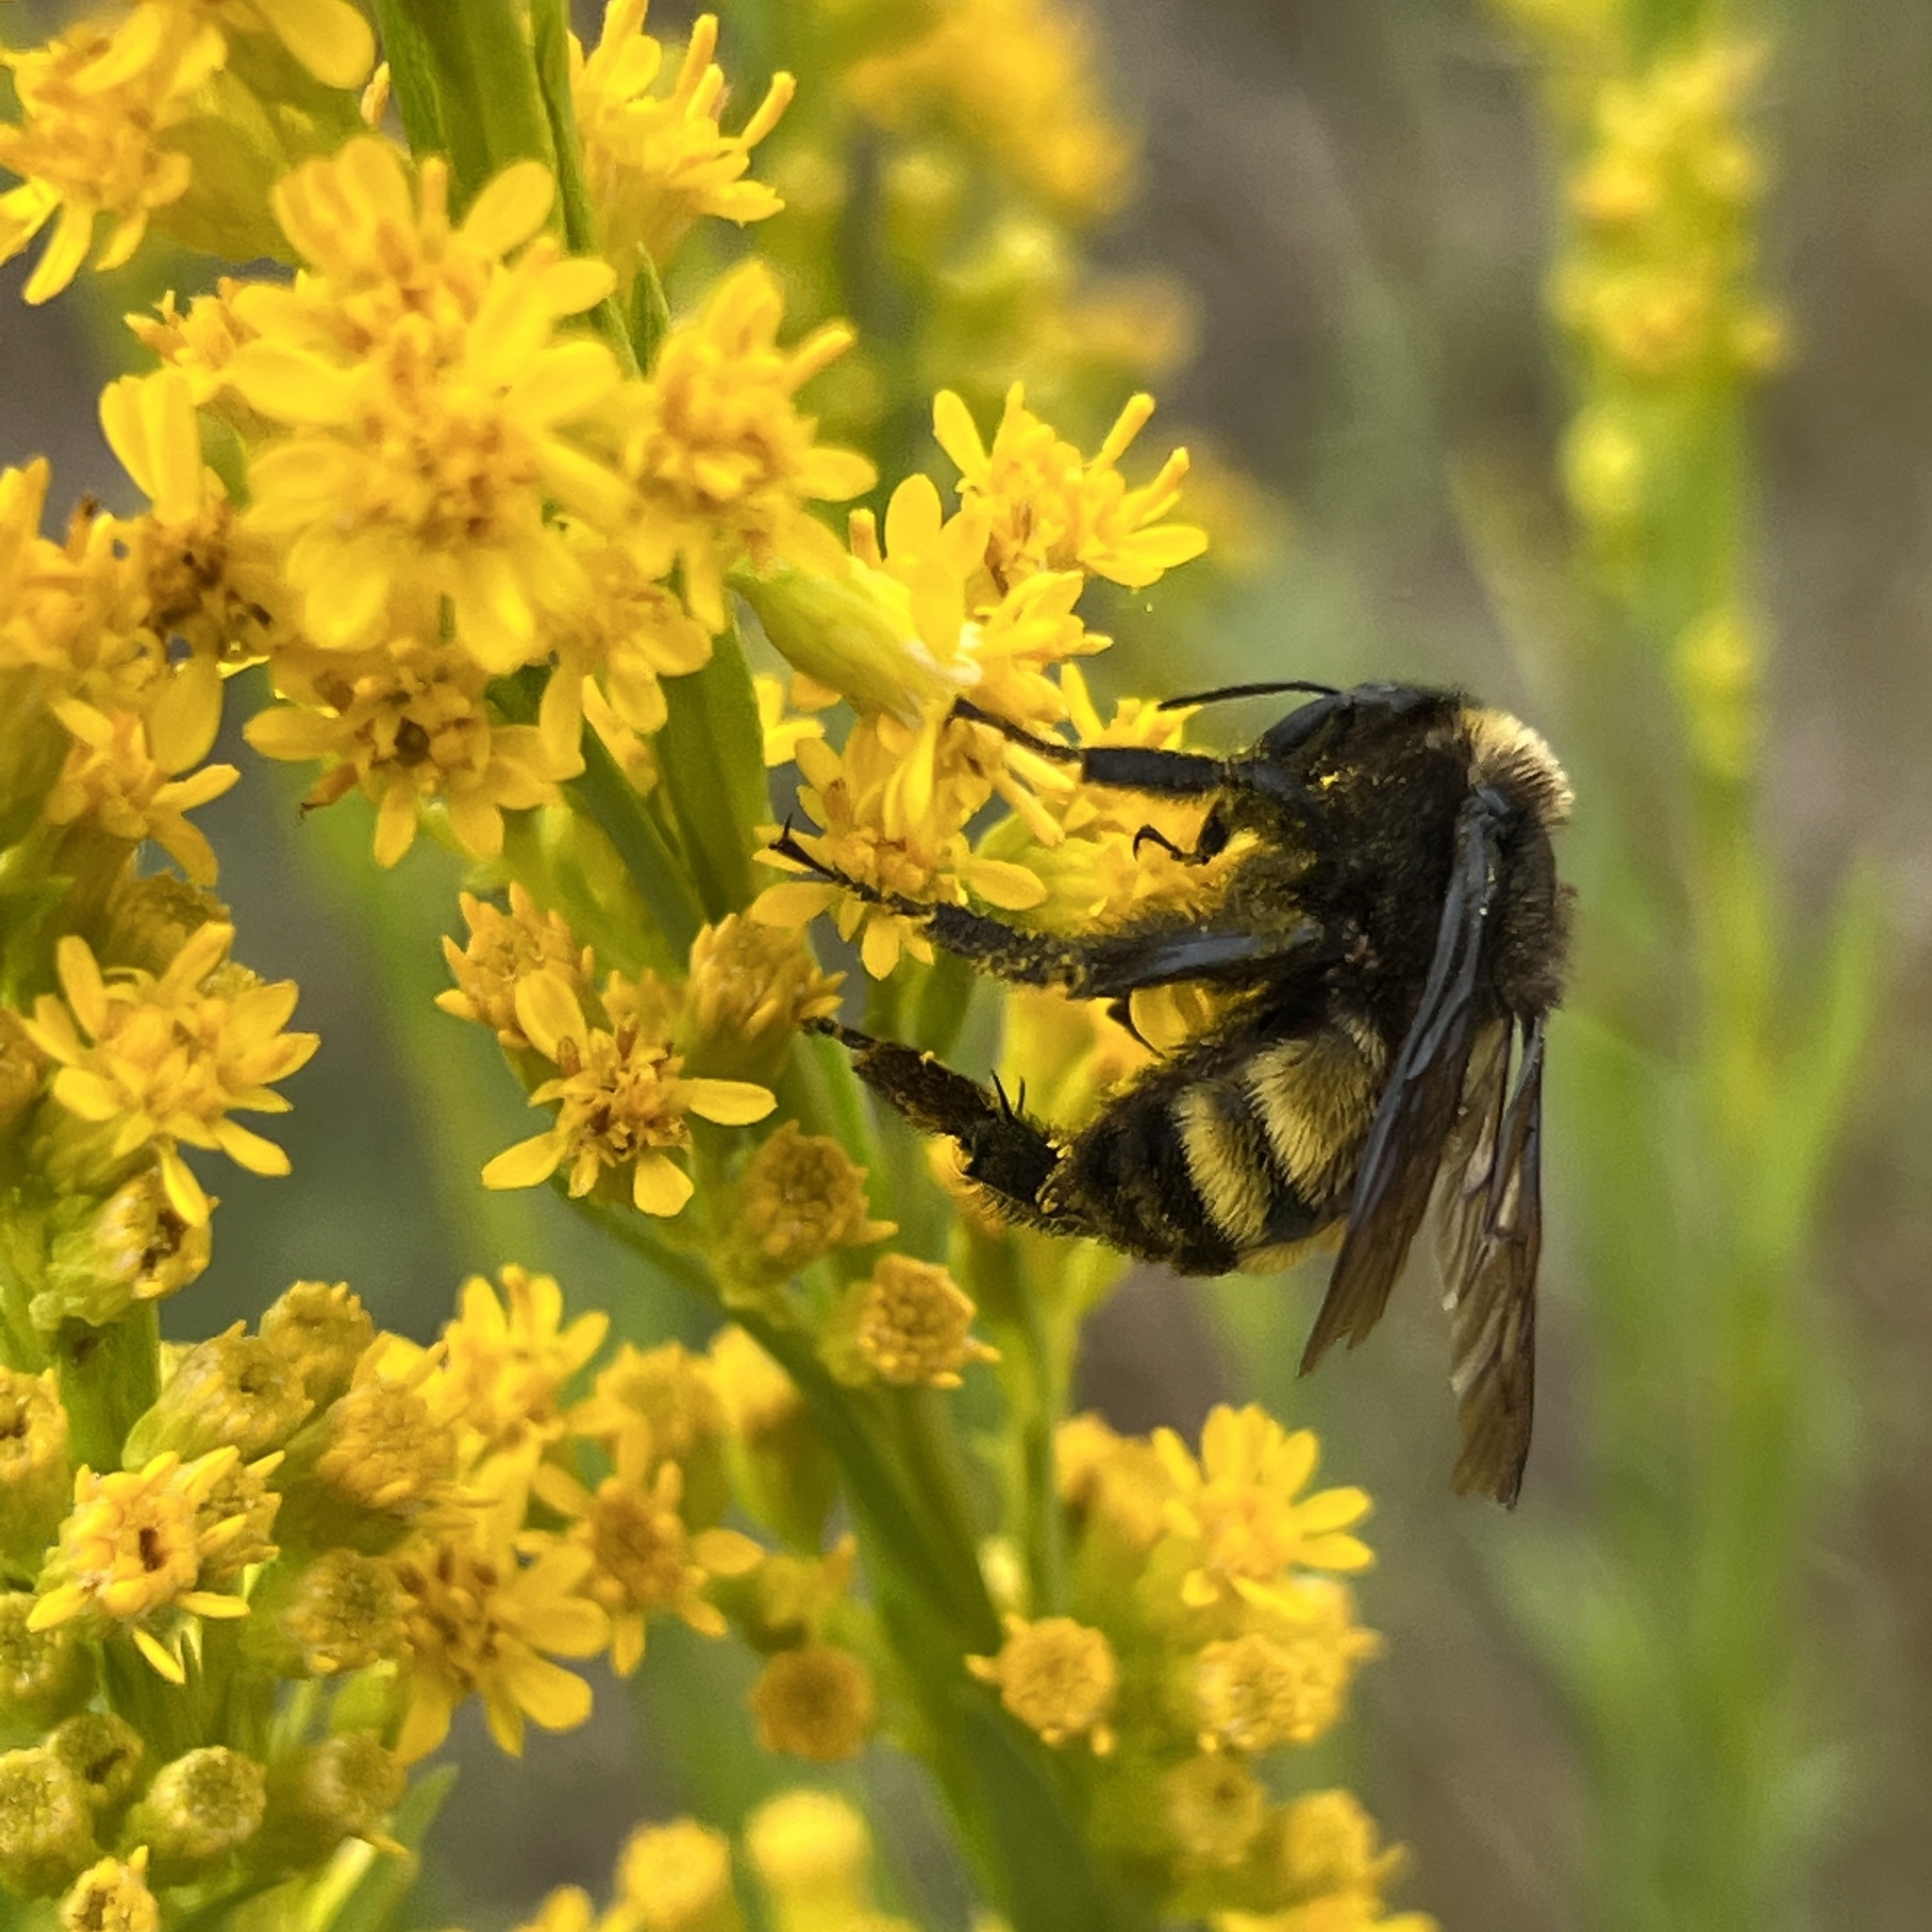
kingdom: Animalia
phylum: Arthropoda
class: Insecta
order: Hymenoptera
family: Apidae
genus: Bombus
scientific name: Bombus pensylvanicus
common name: Bumble bee
